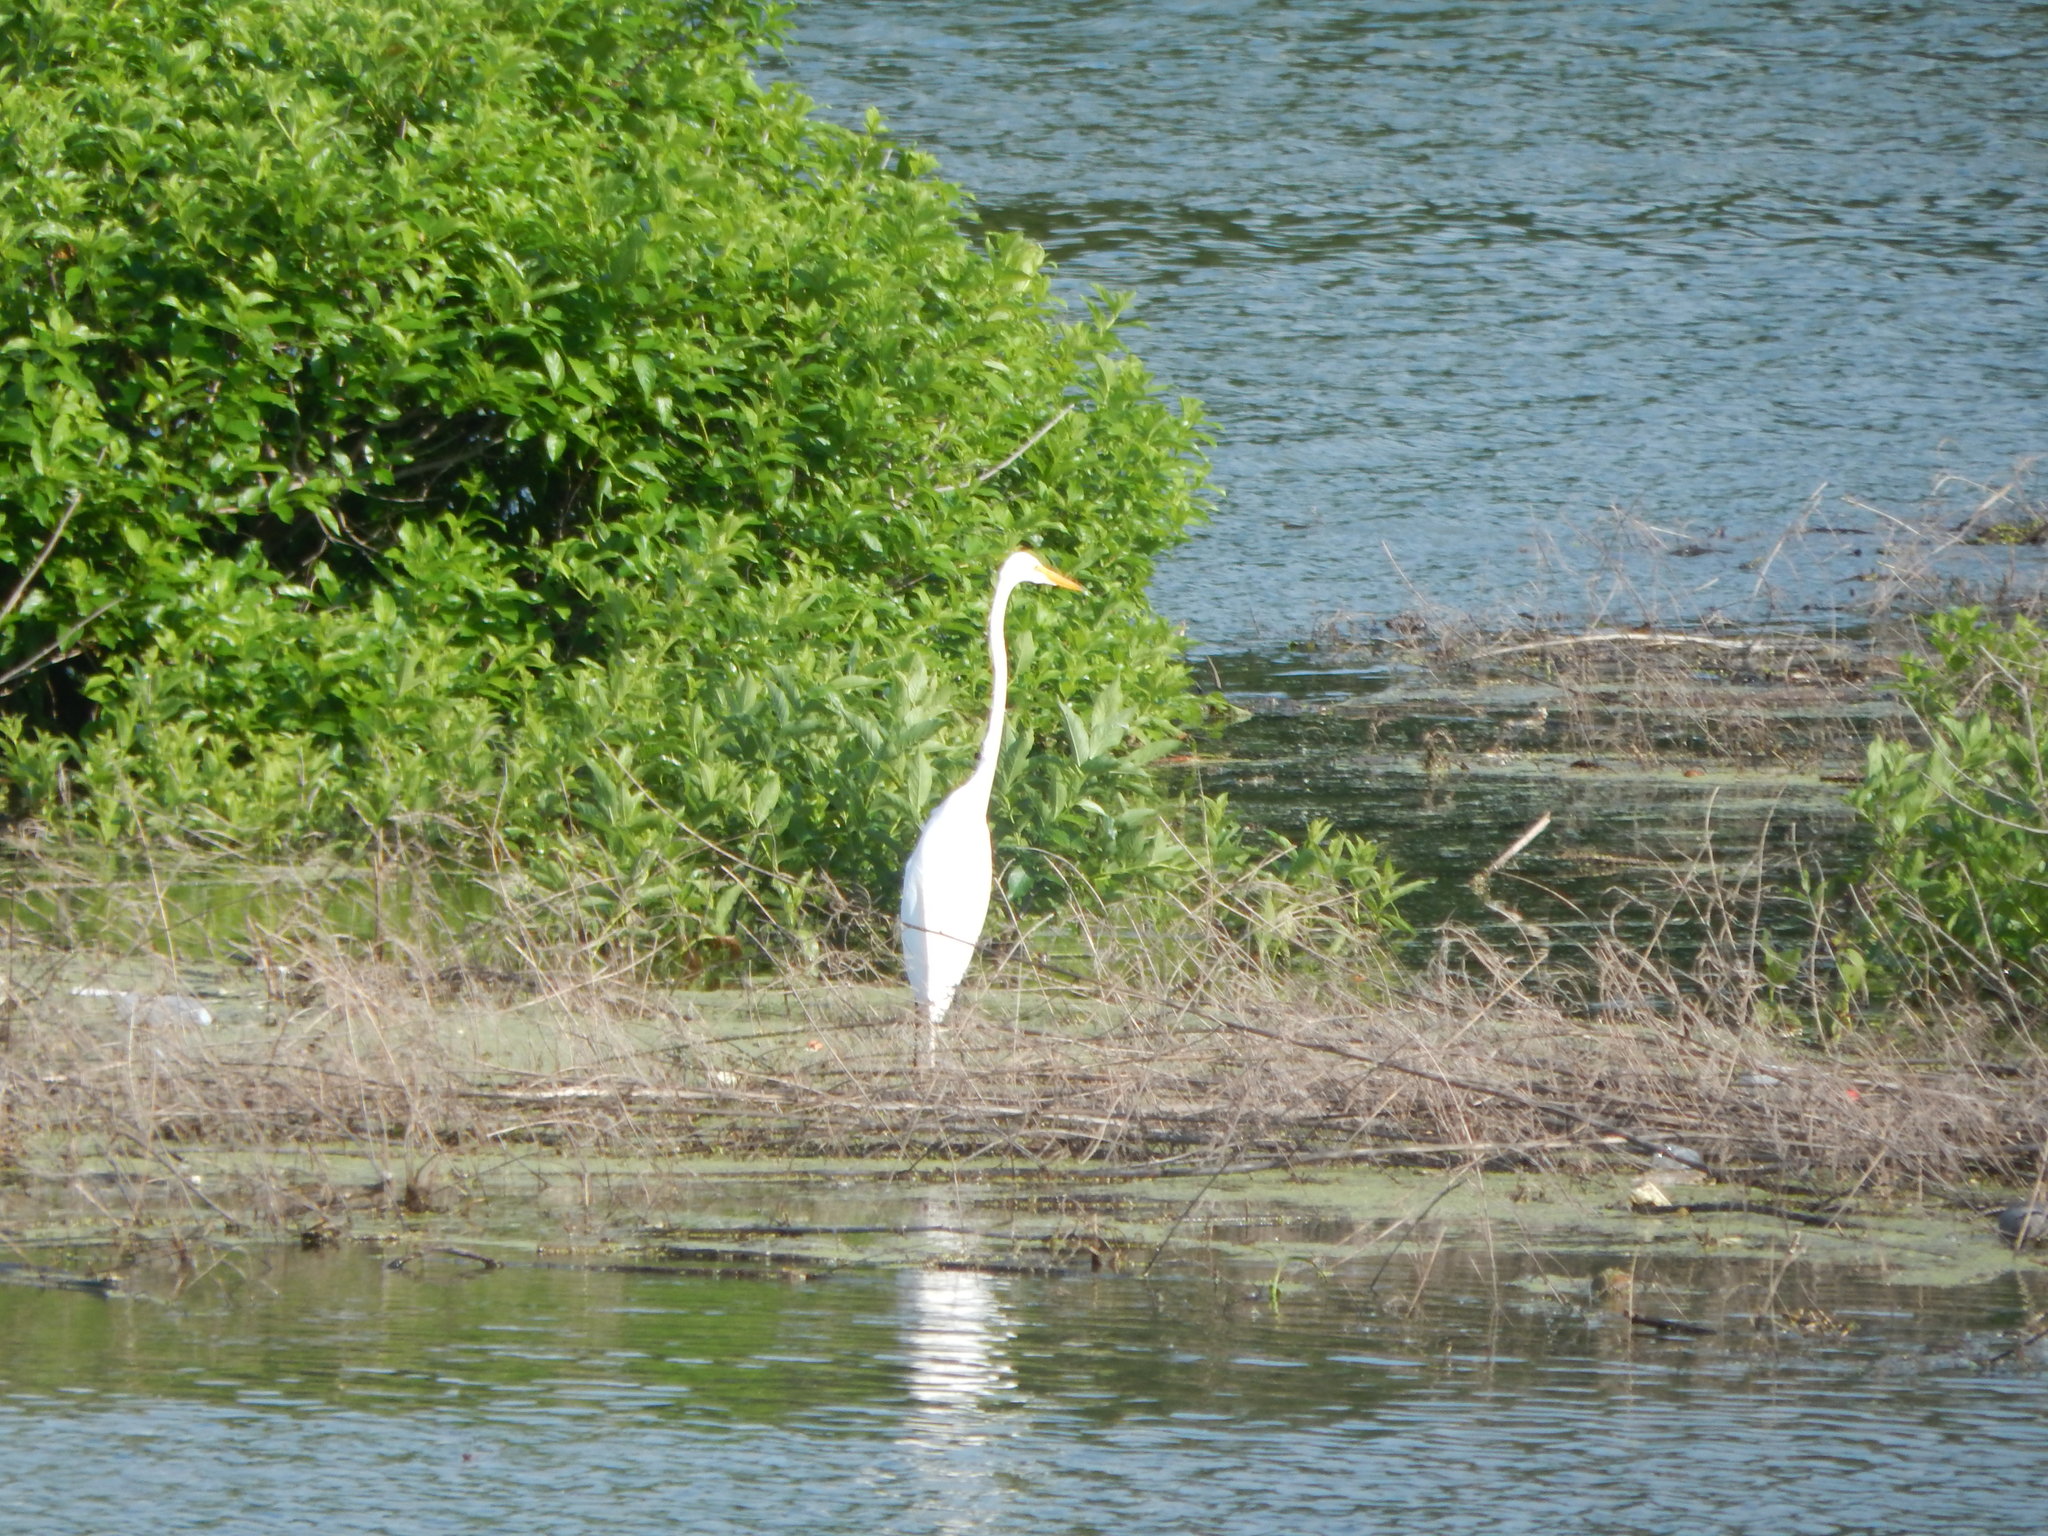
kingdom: Animalia
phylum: Chordata
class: Aves
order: Pelecaniformes
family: Ardeidae
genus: Ardea
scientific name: Ardea alba
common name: Great egret
